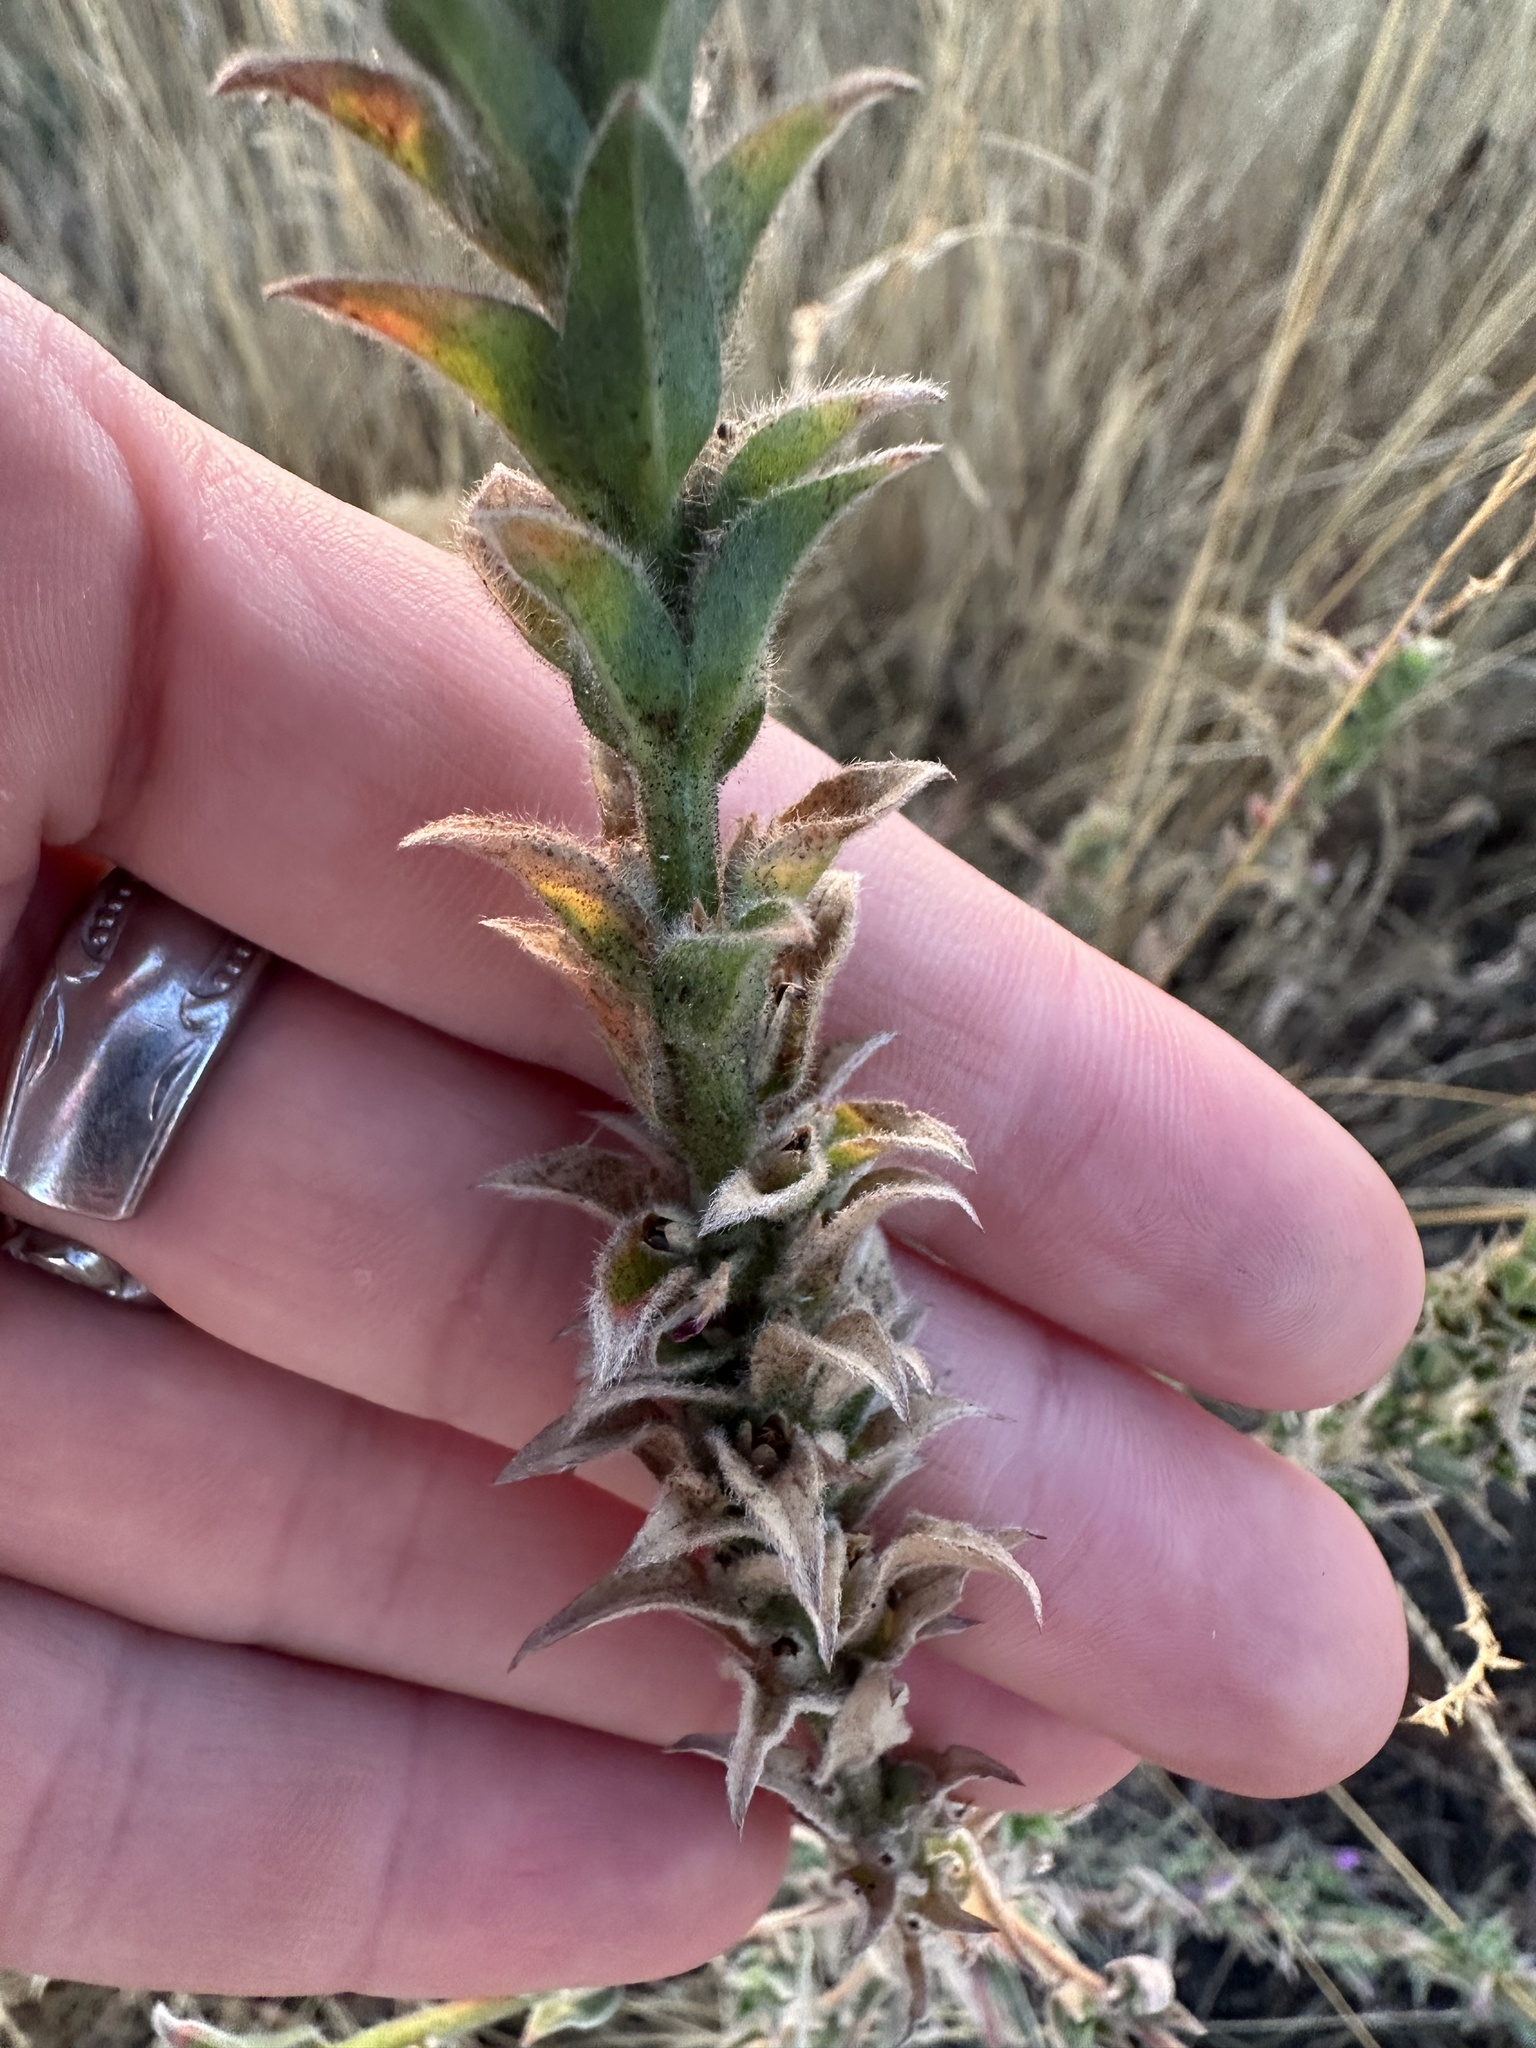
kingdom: Plantae
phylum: Tracheophyta
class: Magnoliopsida
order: Myrtales
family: Onagraceae
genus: Epilobium
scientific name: Epilobium densiflorum
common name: Dense spike-primrose
